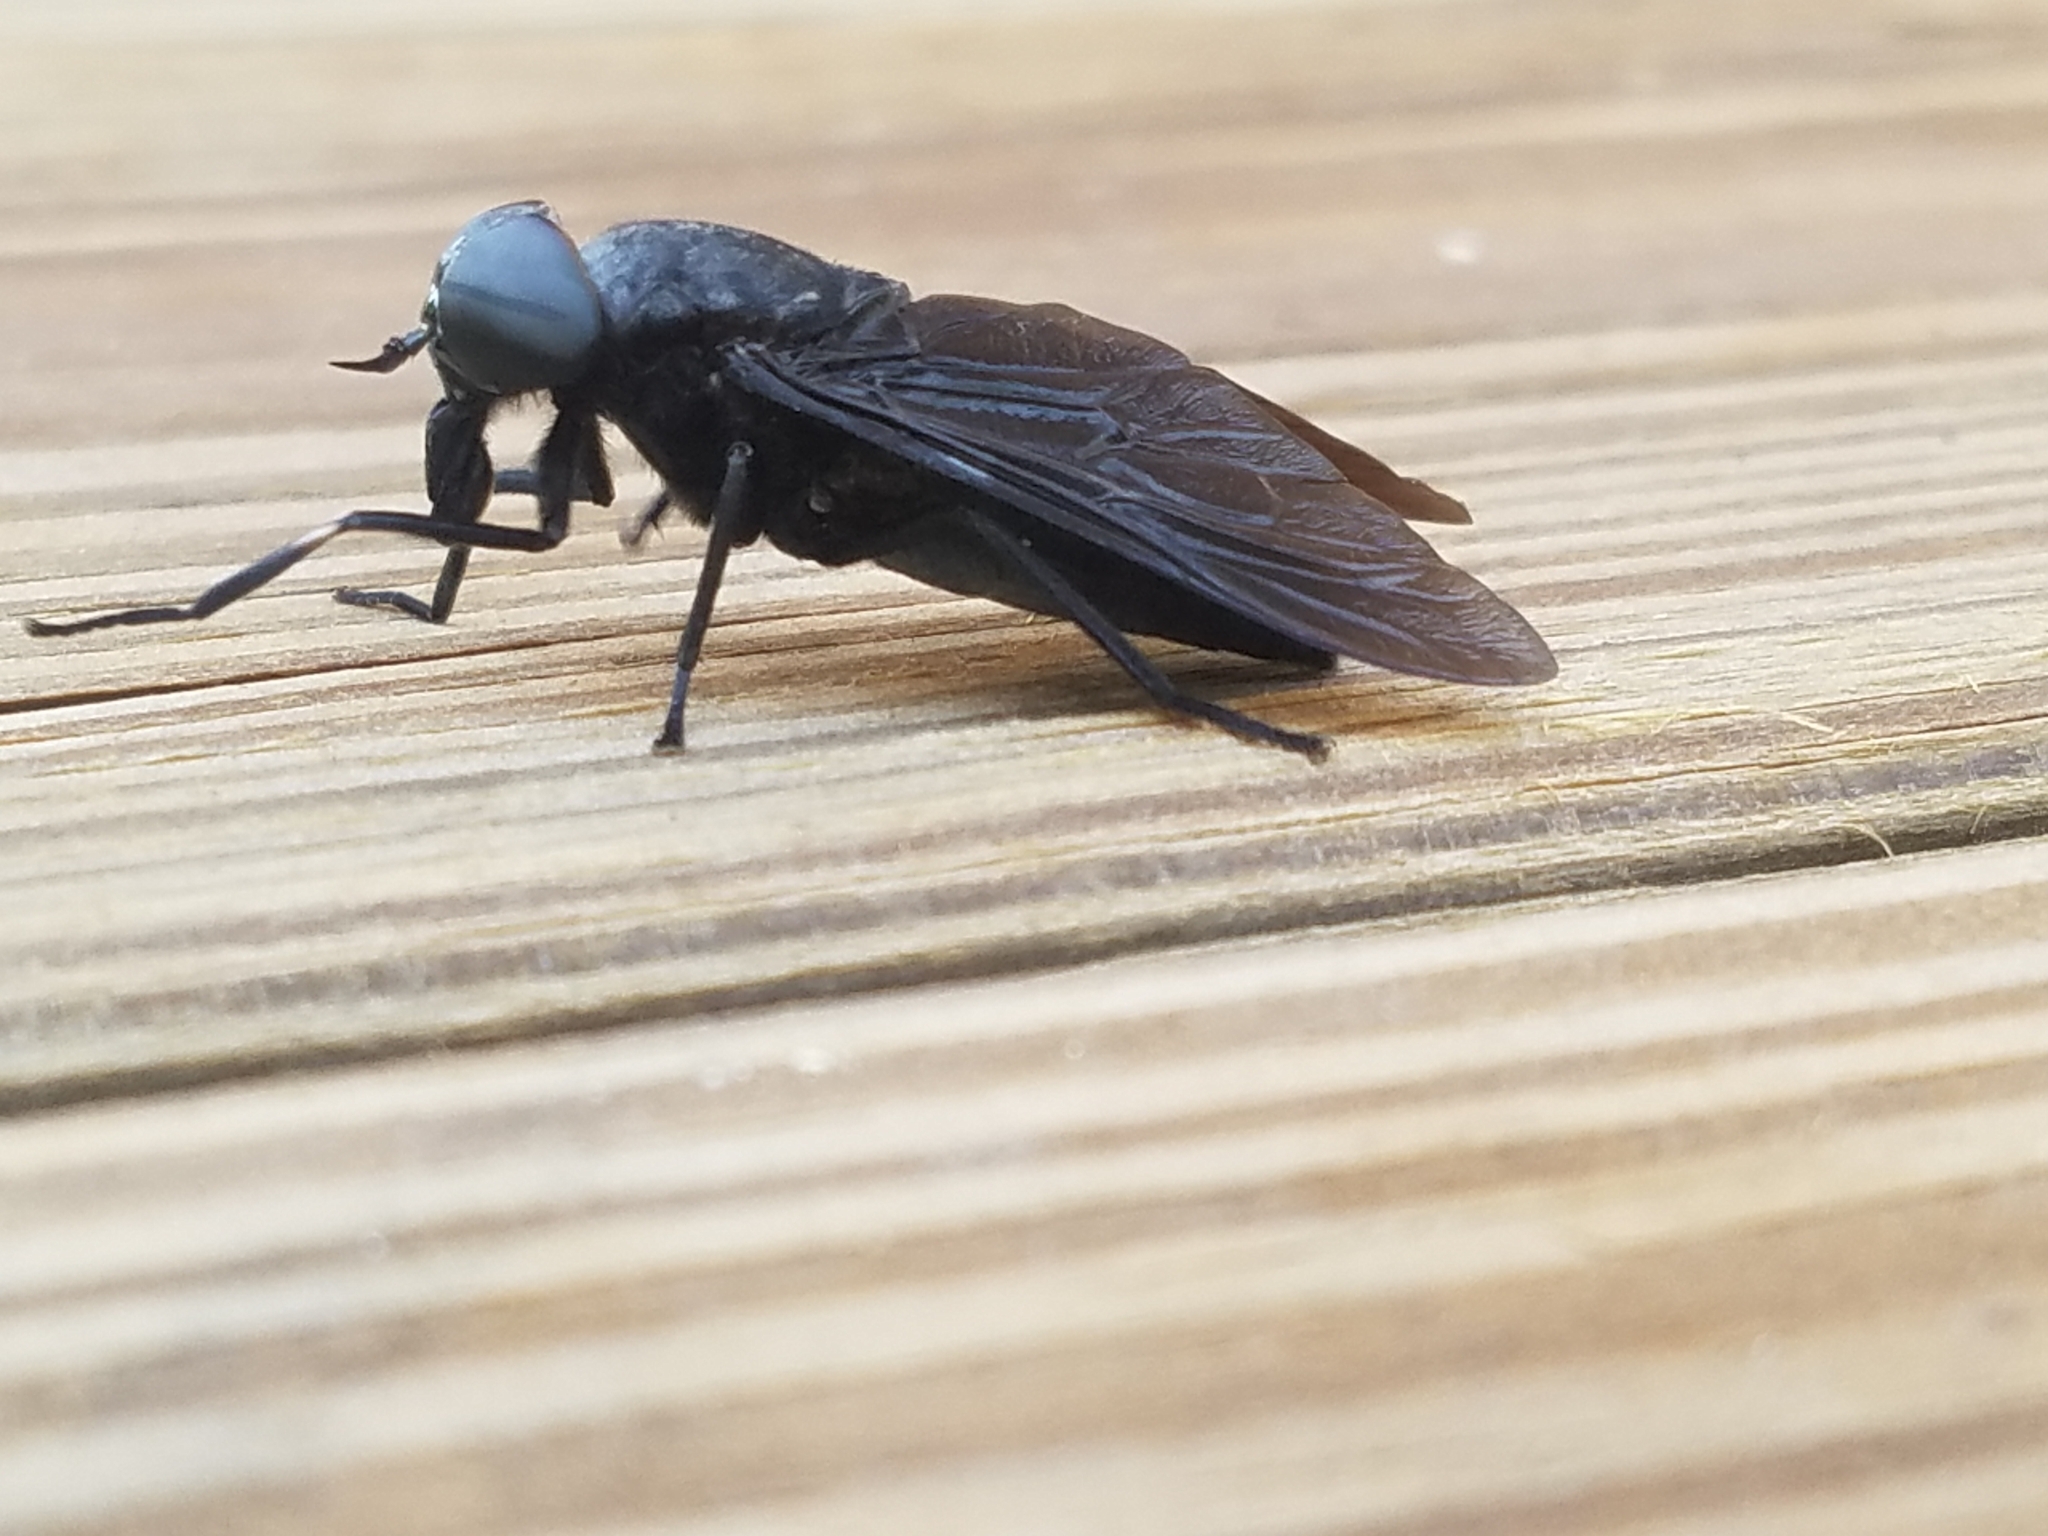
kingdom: Animalia
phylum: Arthropoda
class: Insecta
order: Diptera
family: Tabanidae
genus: Tabanus
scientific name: Tabanus atratus
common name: Black horse fly
